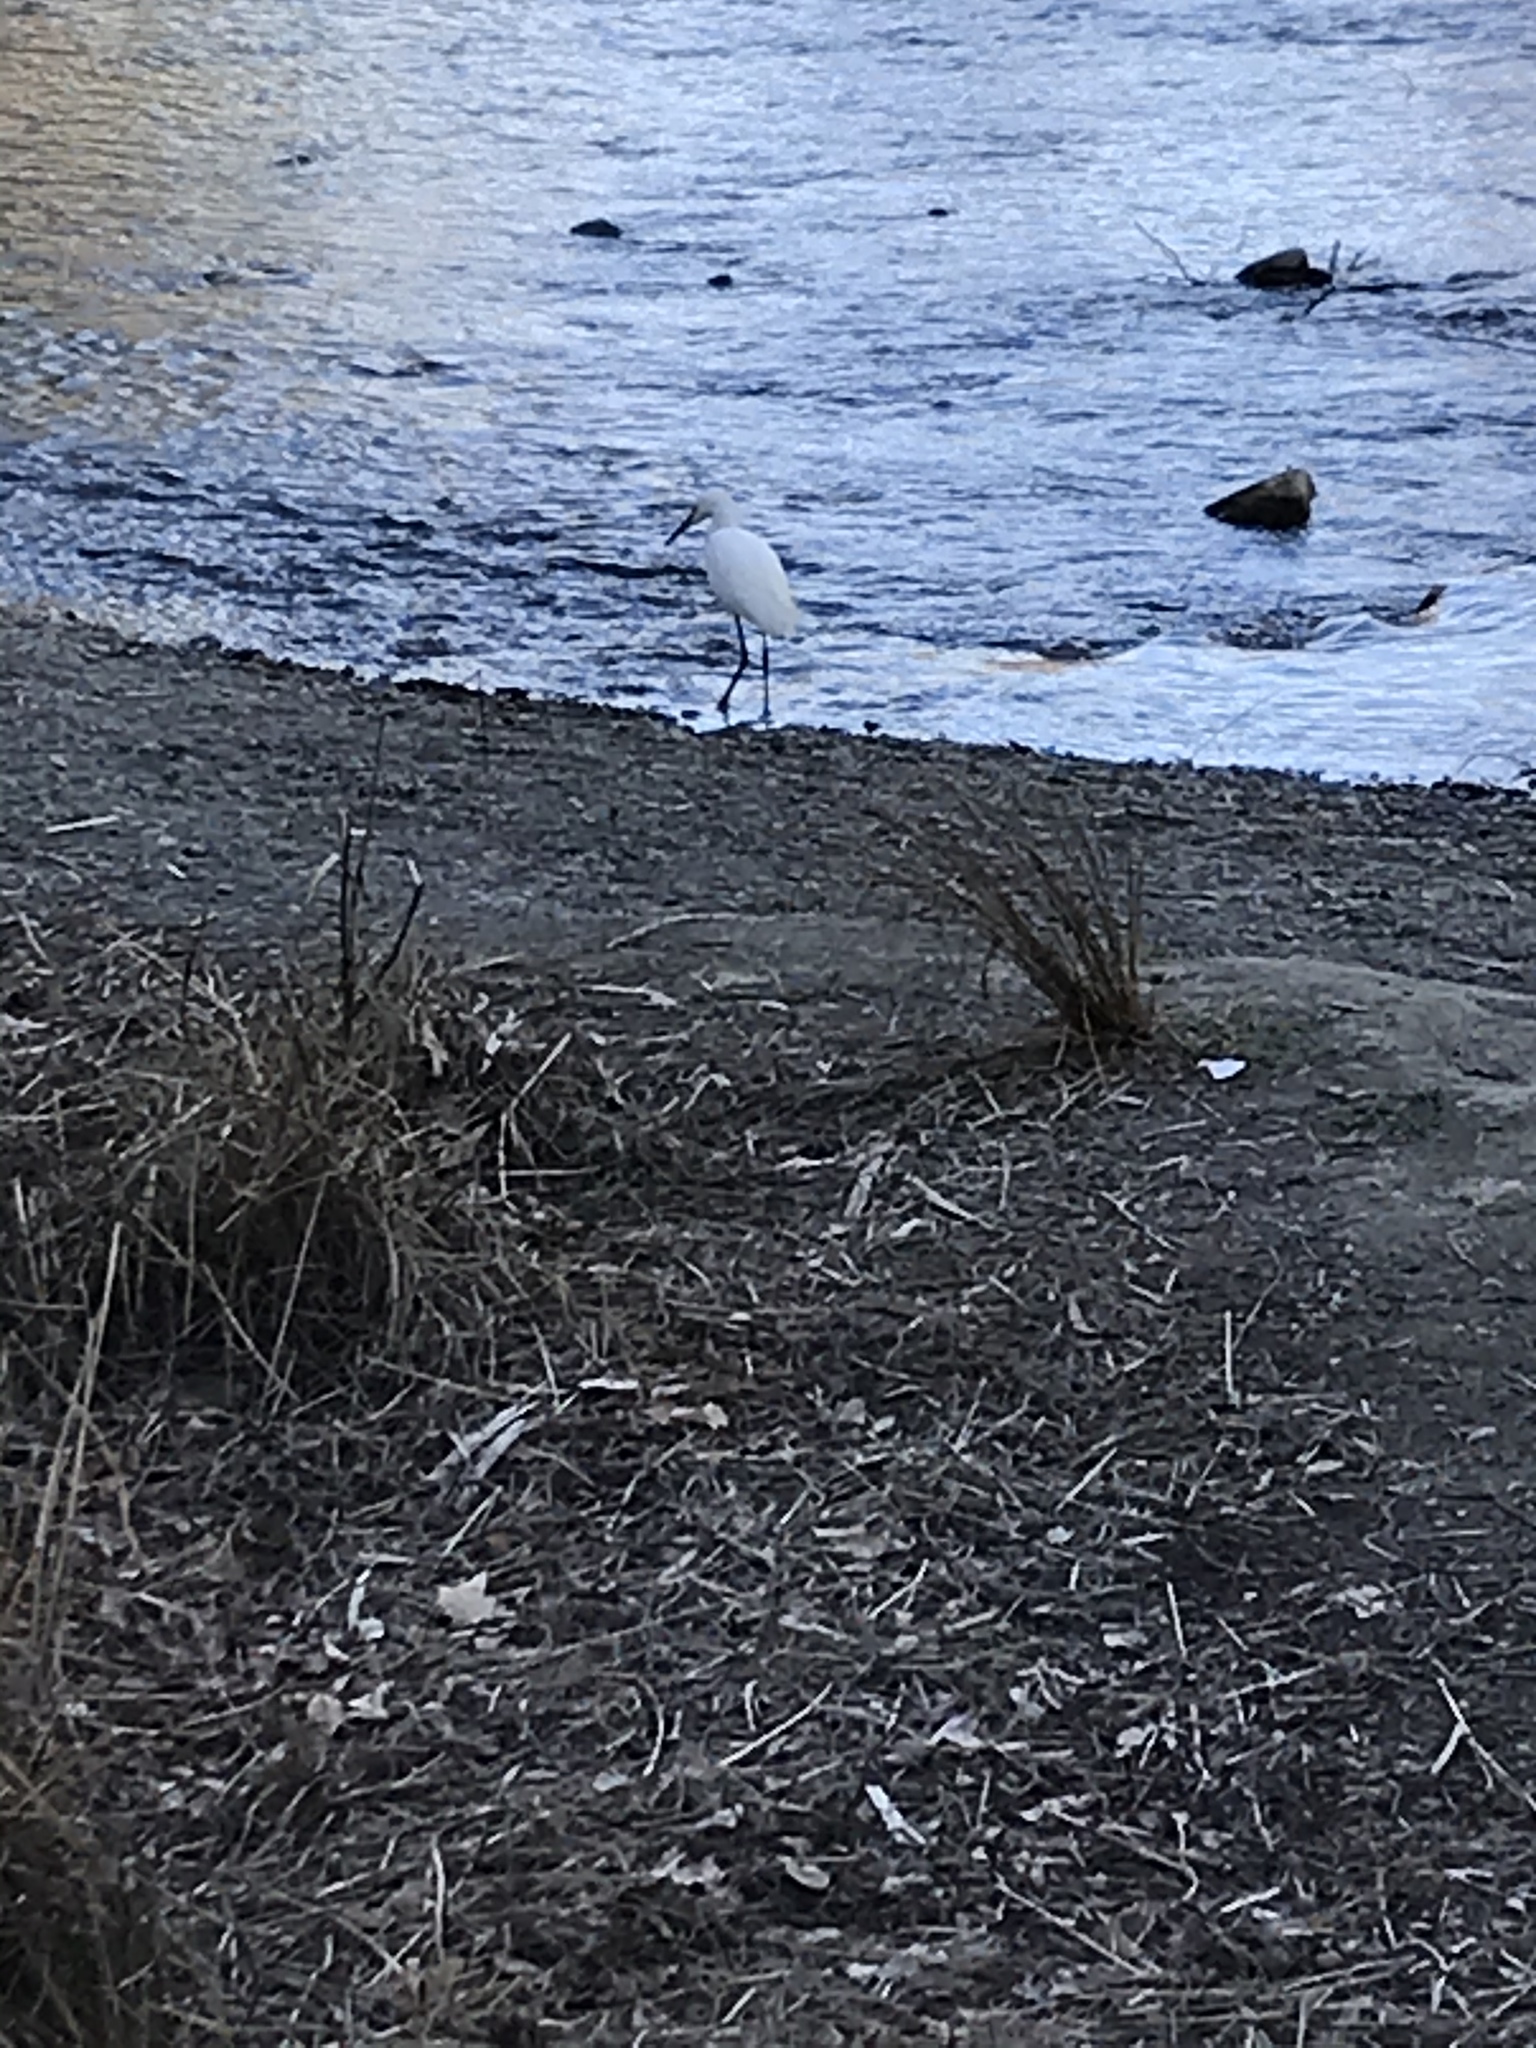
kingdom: Animalia
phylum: Chordata
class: Aves
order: Pelecaniformes
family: Ardeidae
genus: Ardea
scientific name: Ardea alba
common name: Great egret
